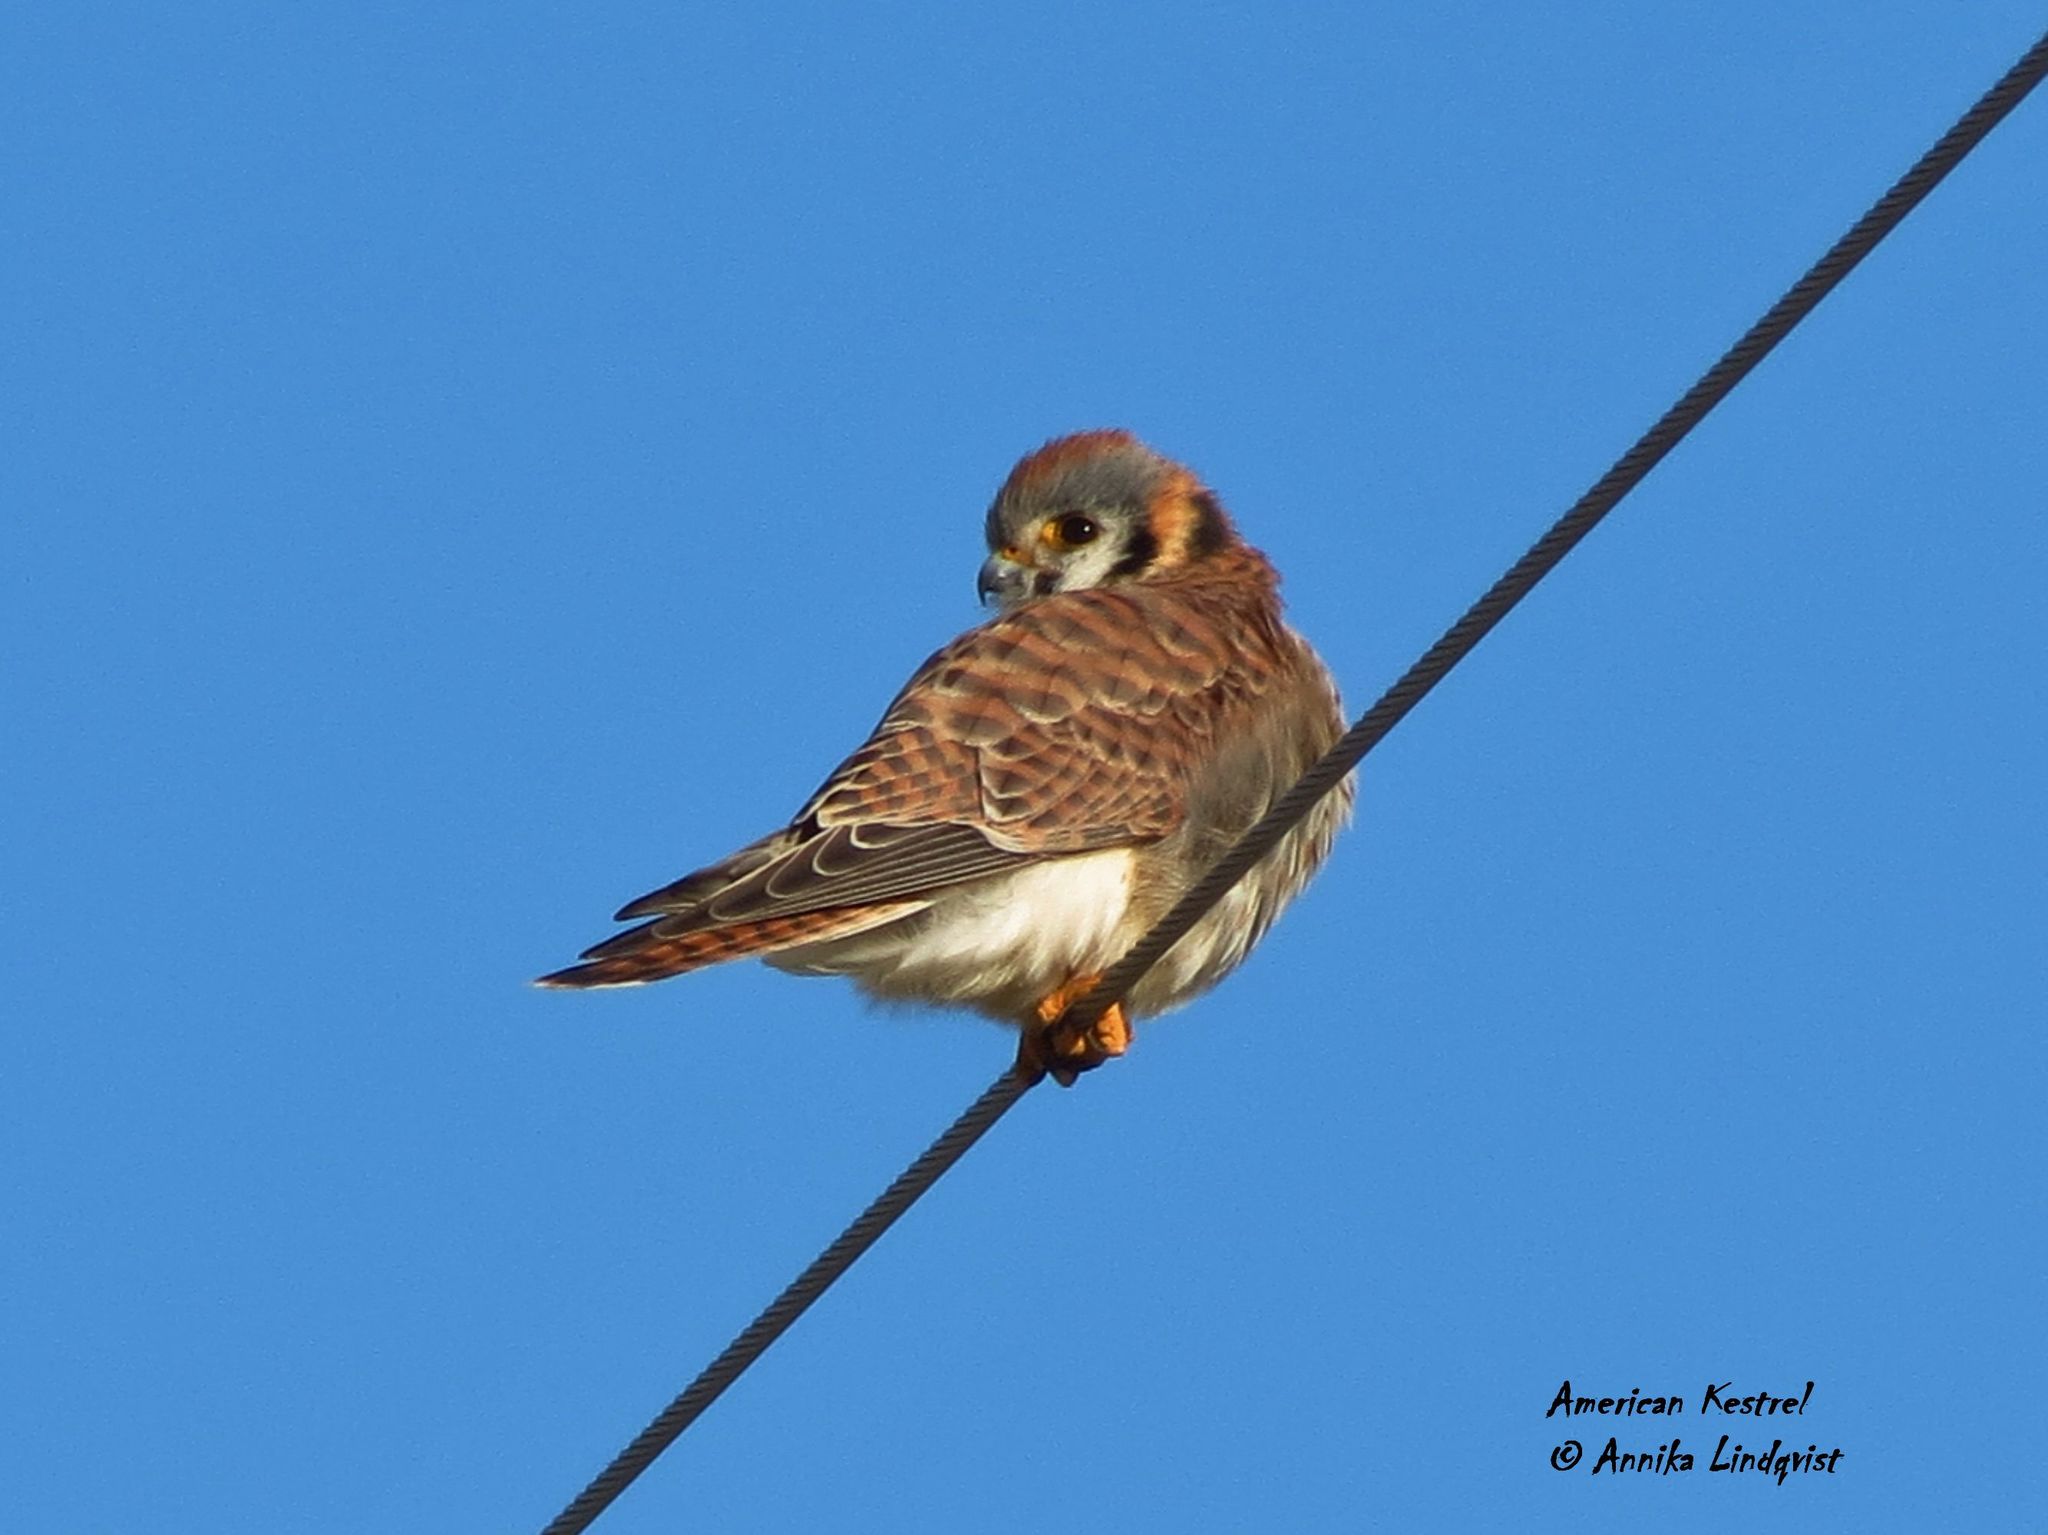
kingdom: Animalia
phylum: Chordata
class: Aves
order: Falconiformes
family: Falconidae
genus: Falco
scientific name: Falco sparverius
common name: American kestrel
